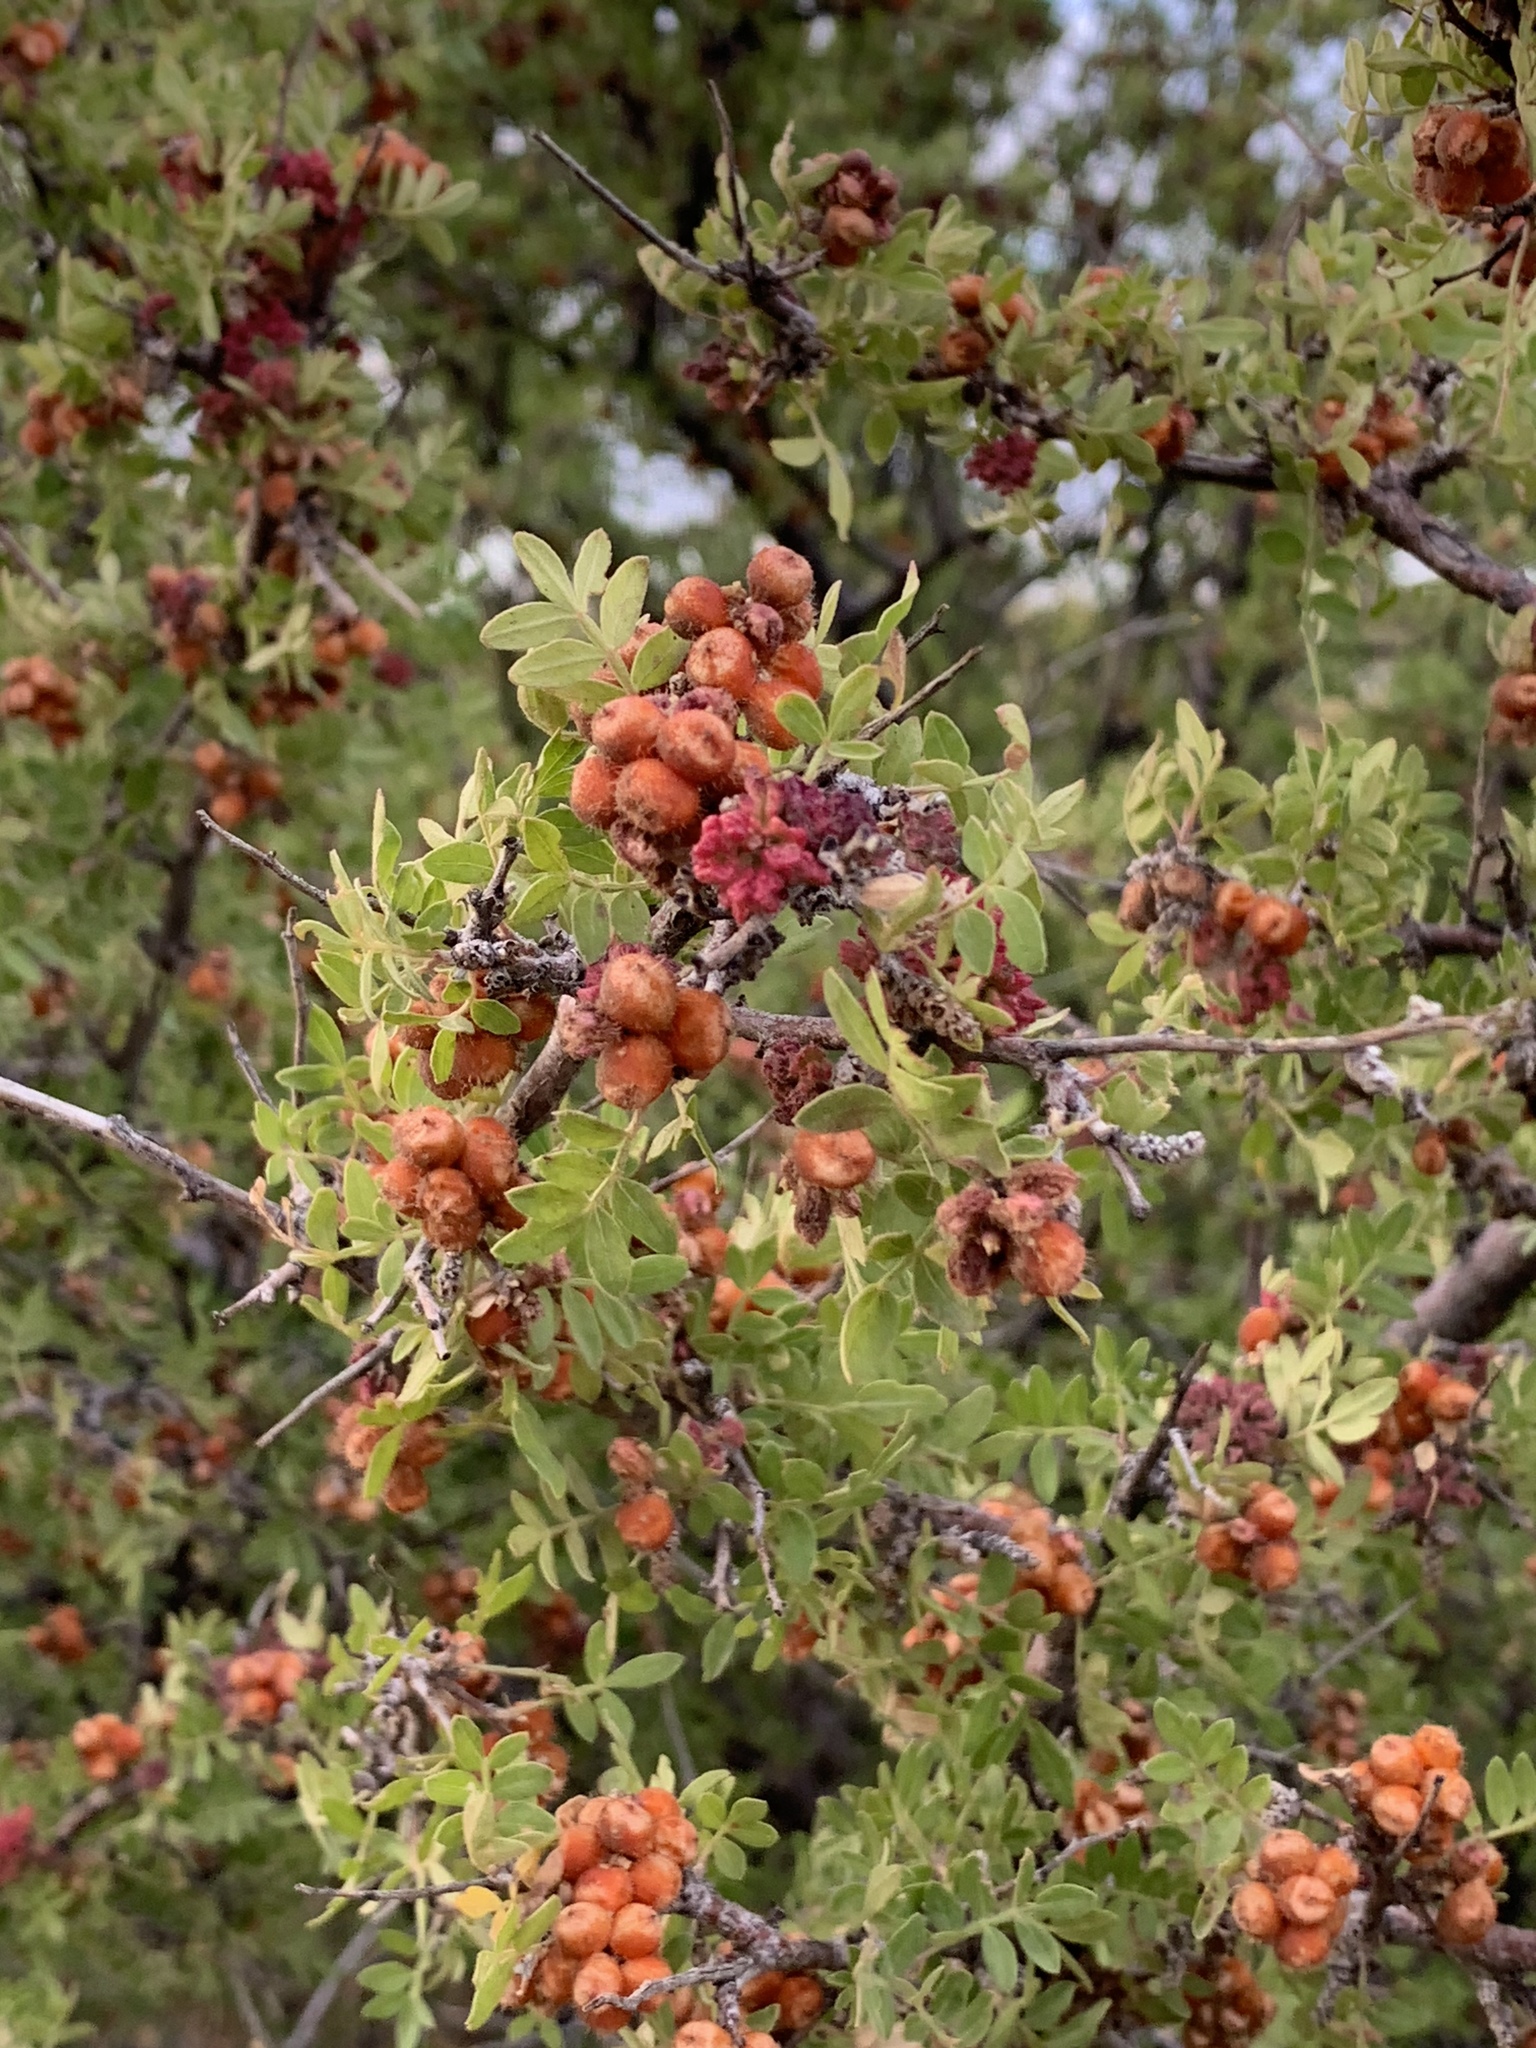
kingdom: Plantae
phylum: Tracheophyta
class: Magnoliopsida
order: Sapindales
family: Anacardiaceae
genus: Rhus
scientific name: Rhus microphylla
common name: Desert sumac
